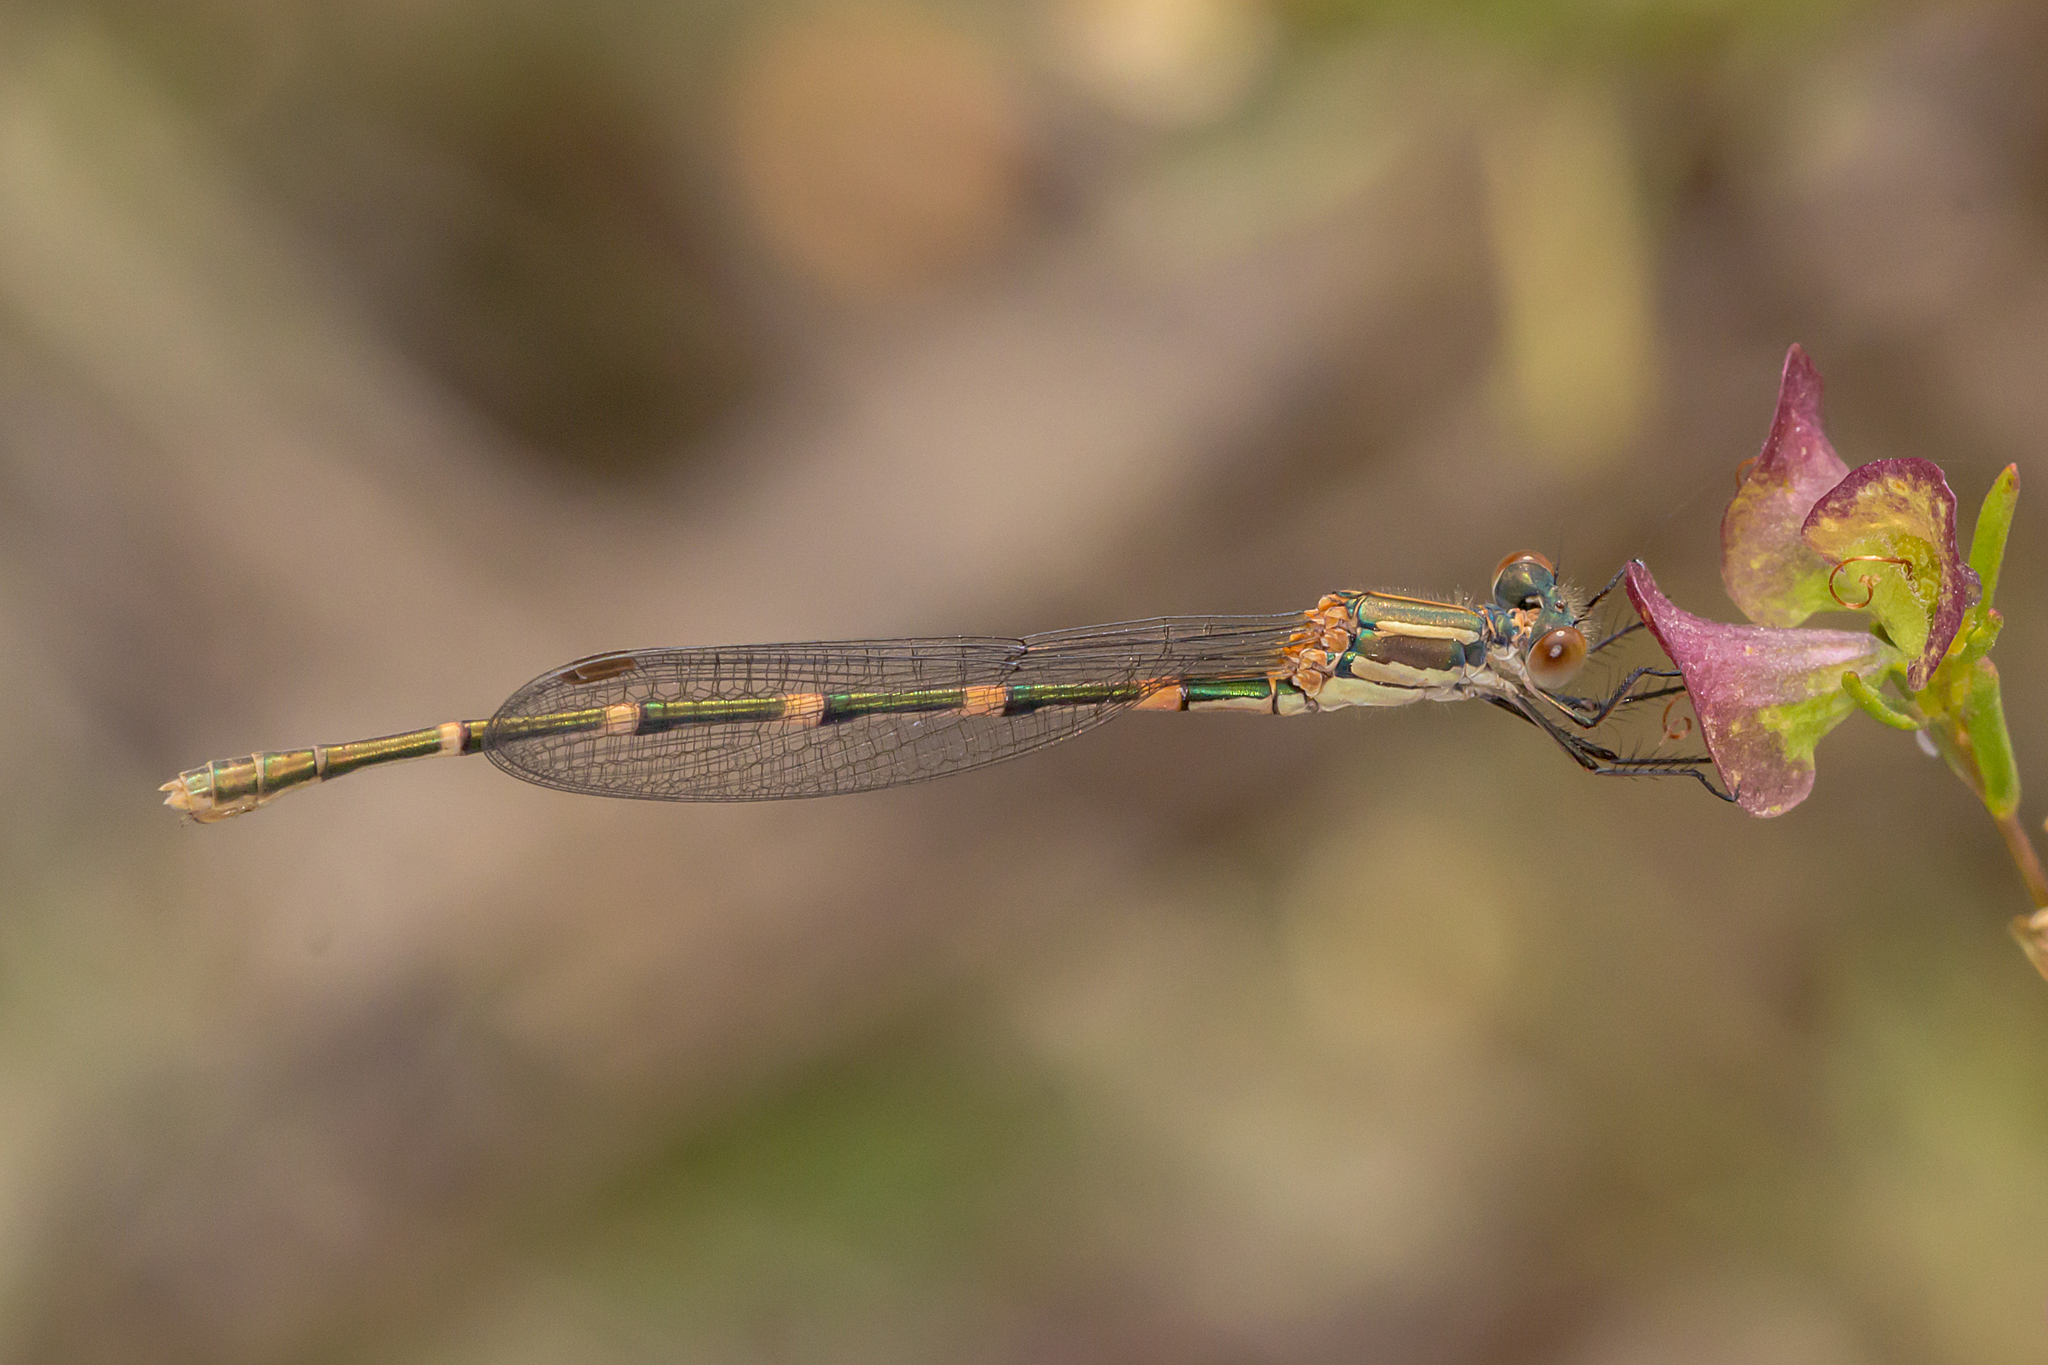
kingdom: Animalia
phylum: Arthropoda
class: Insecta
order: Odonata
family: Lestidae
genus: Austrolestes
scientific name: Austrolestes leda
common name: Wandering ringtail
